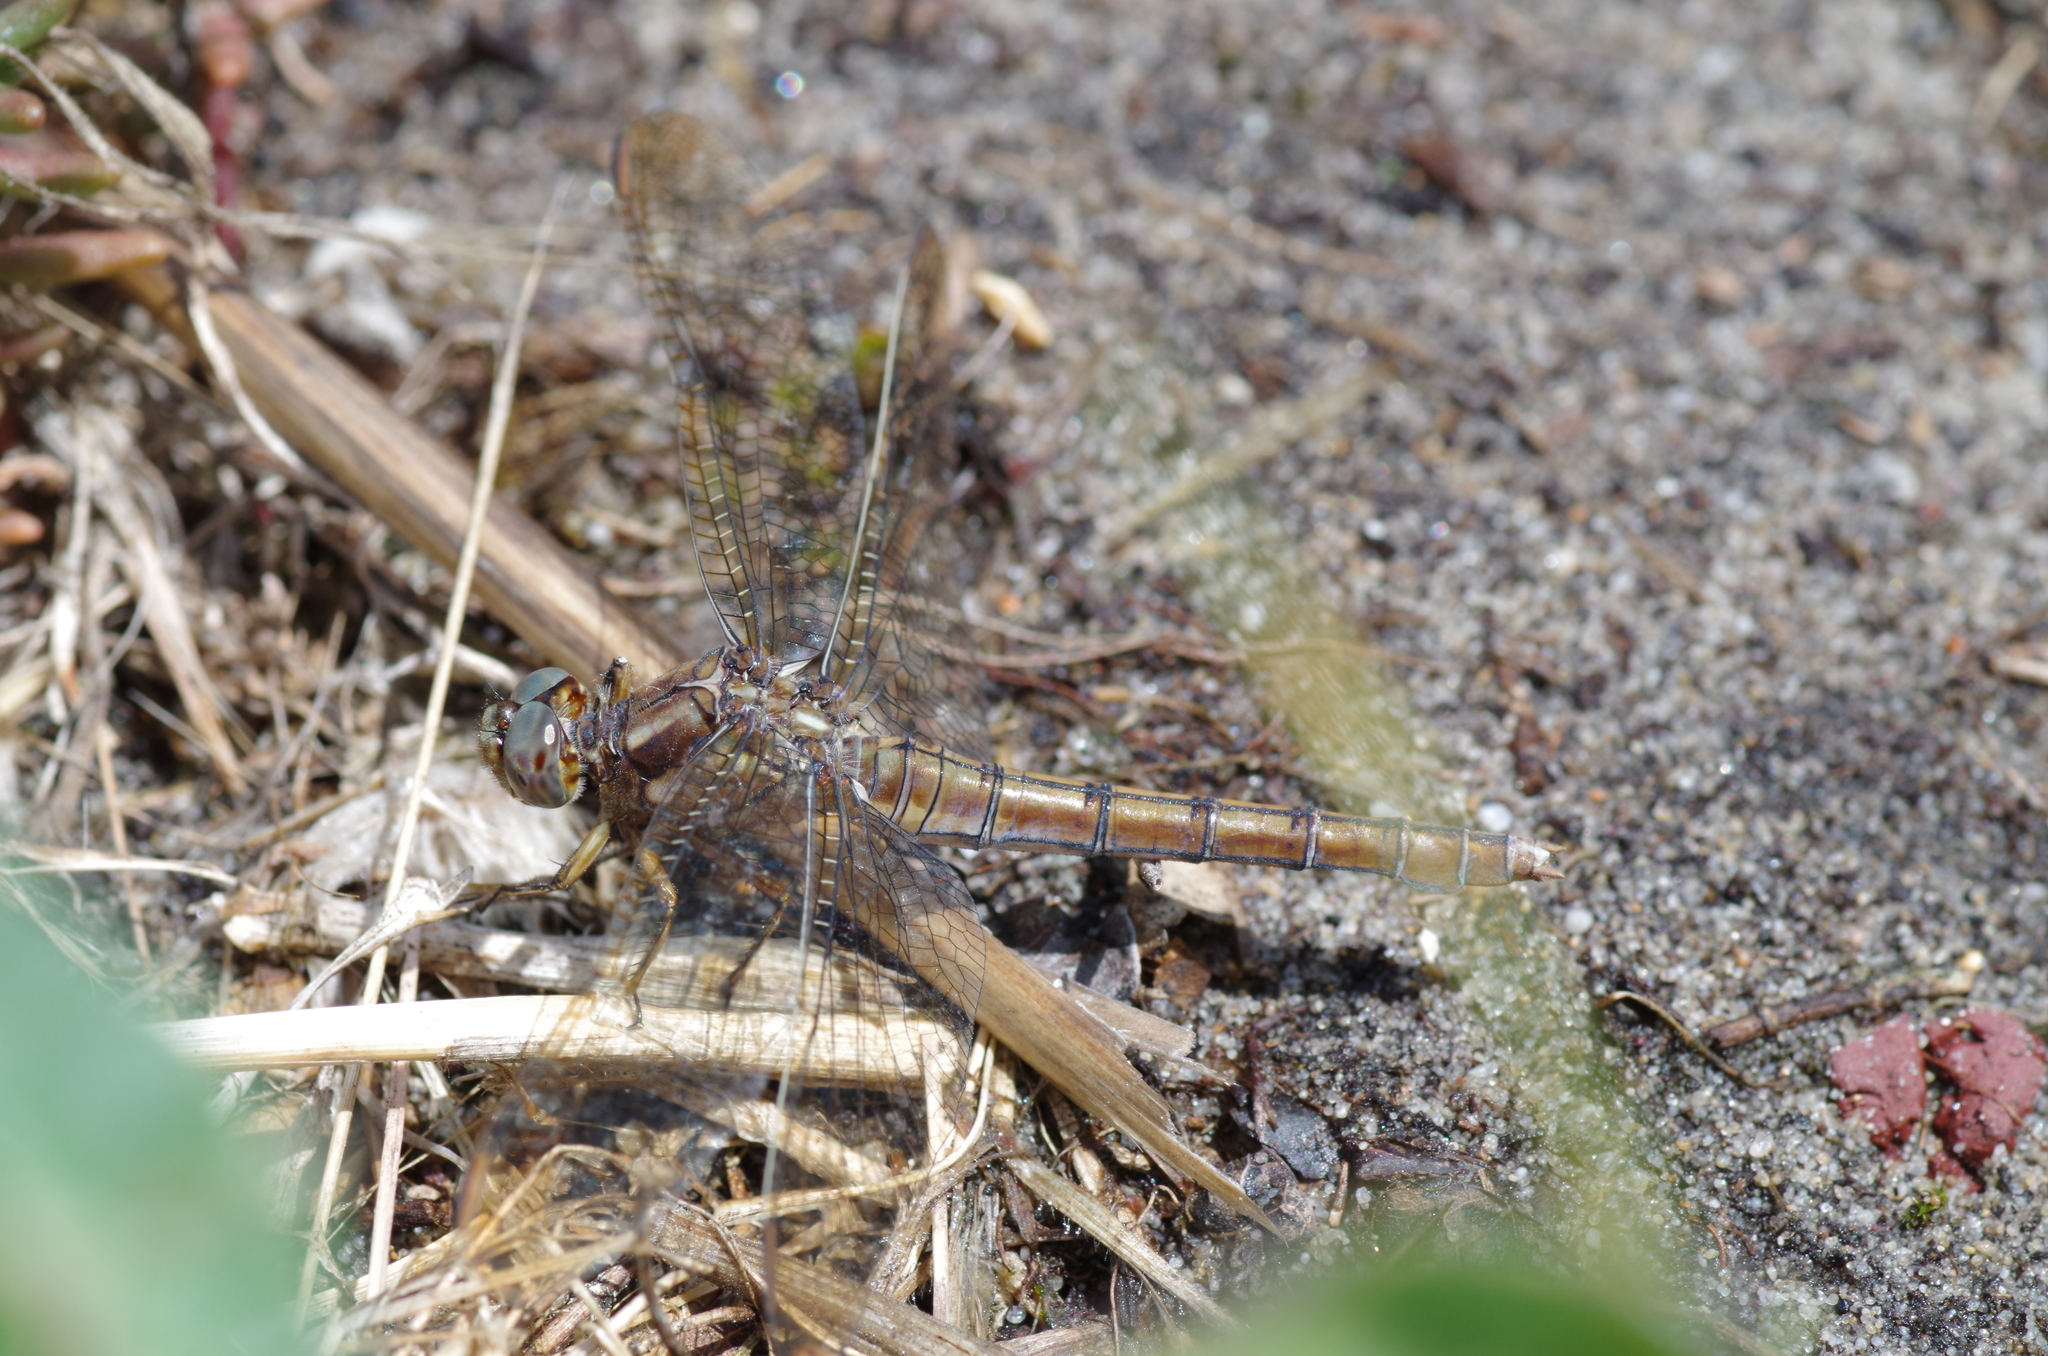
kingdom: Animalia
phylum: Arthropoda
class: Insecta
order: Odonata
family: Libellulidae
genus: Orthetrum
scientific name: Orthetrum coerulescens
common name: Keeled skimmer
